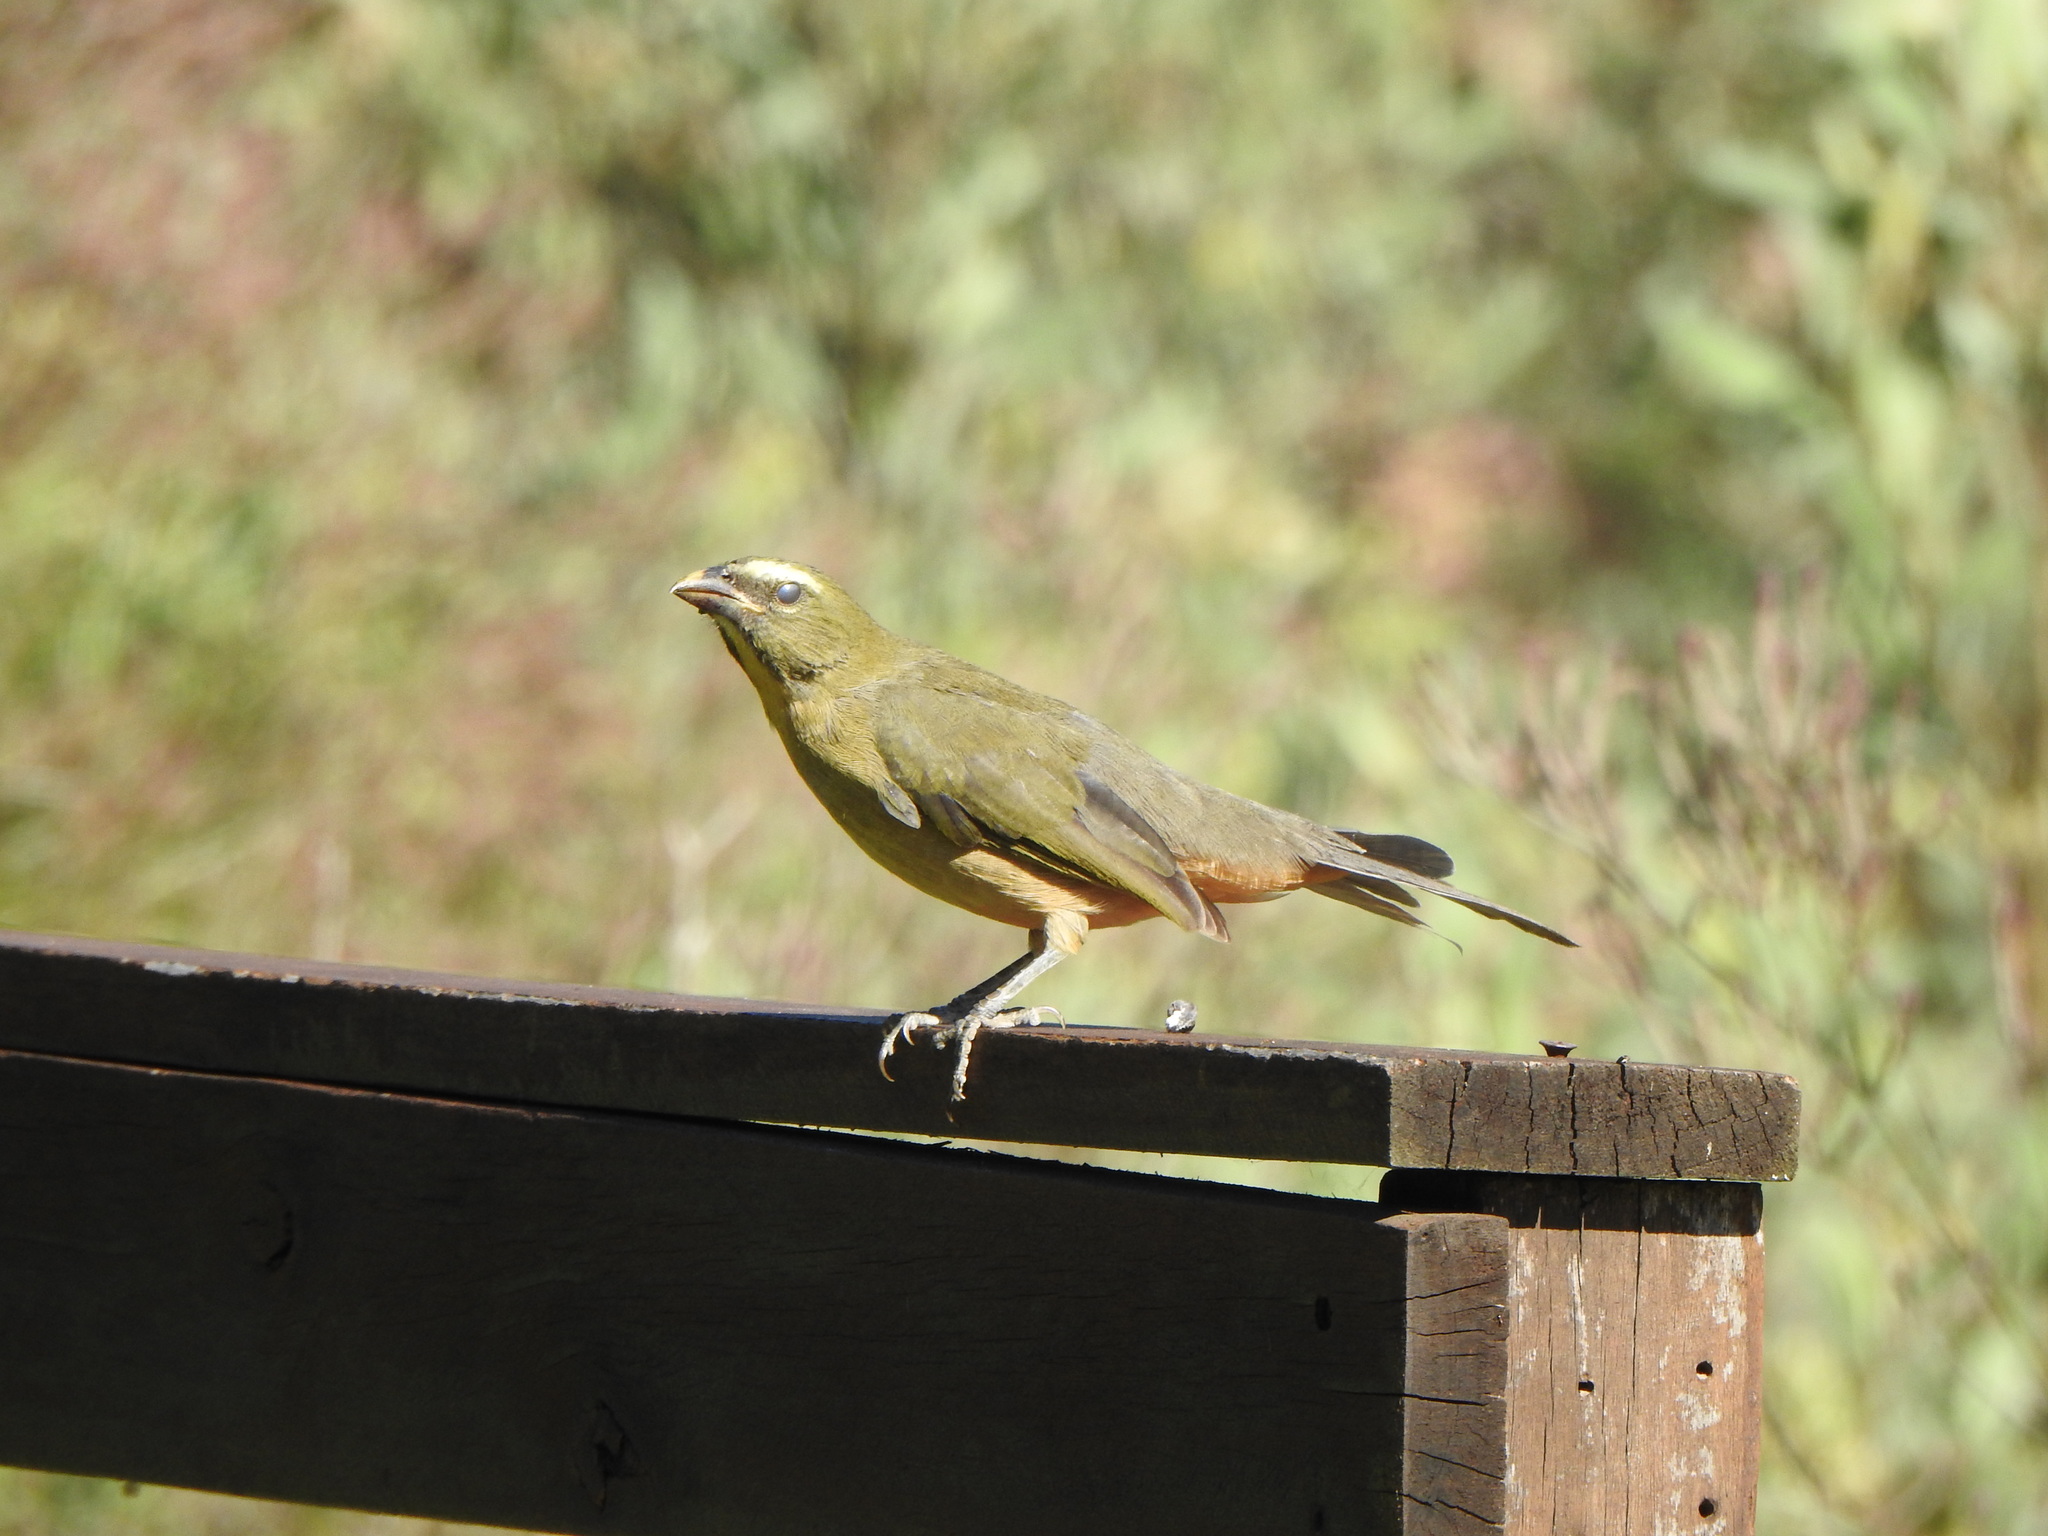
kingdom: Animalia
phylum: Chordata
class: Aves
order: Passeriformes
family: Thraupidae
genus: Saltator
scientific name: Saltator coerulescens
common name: Grayish saltator
